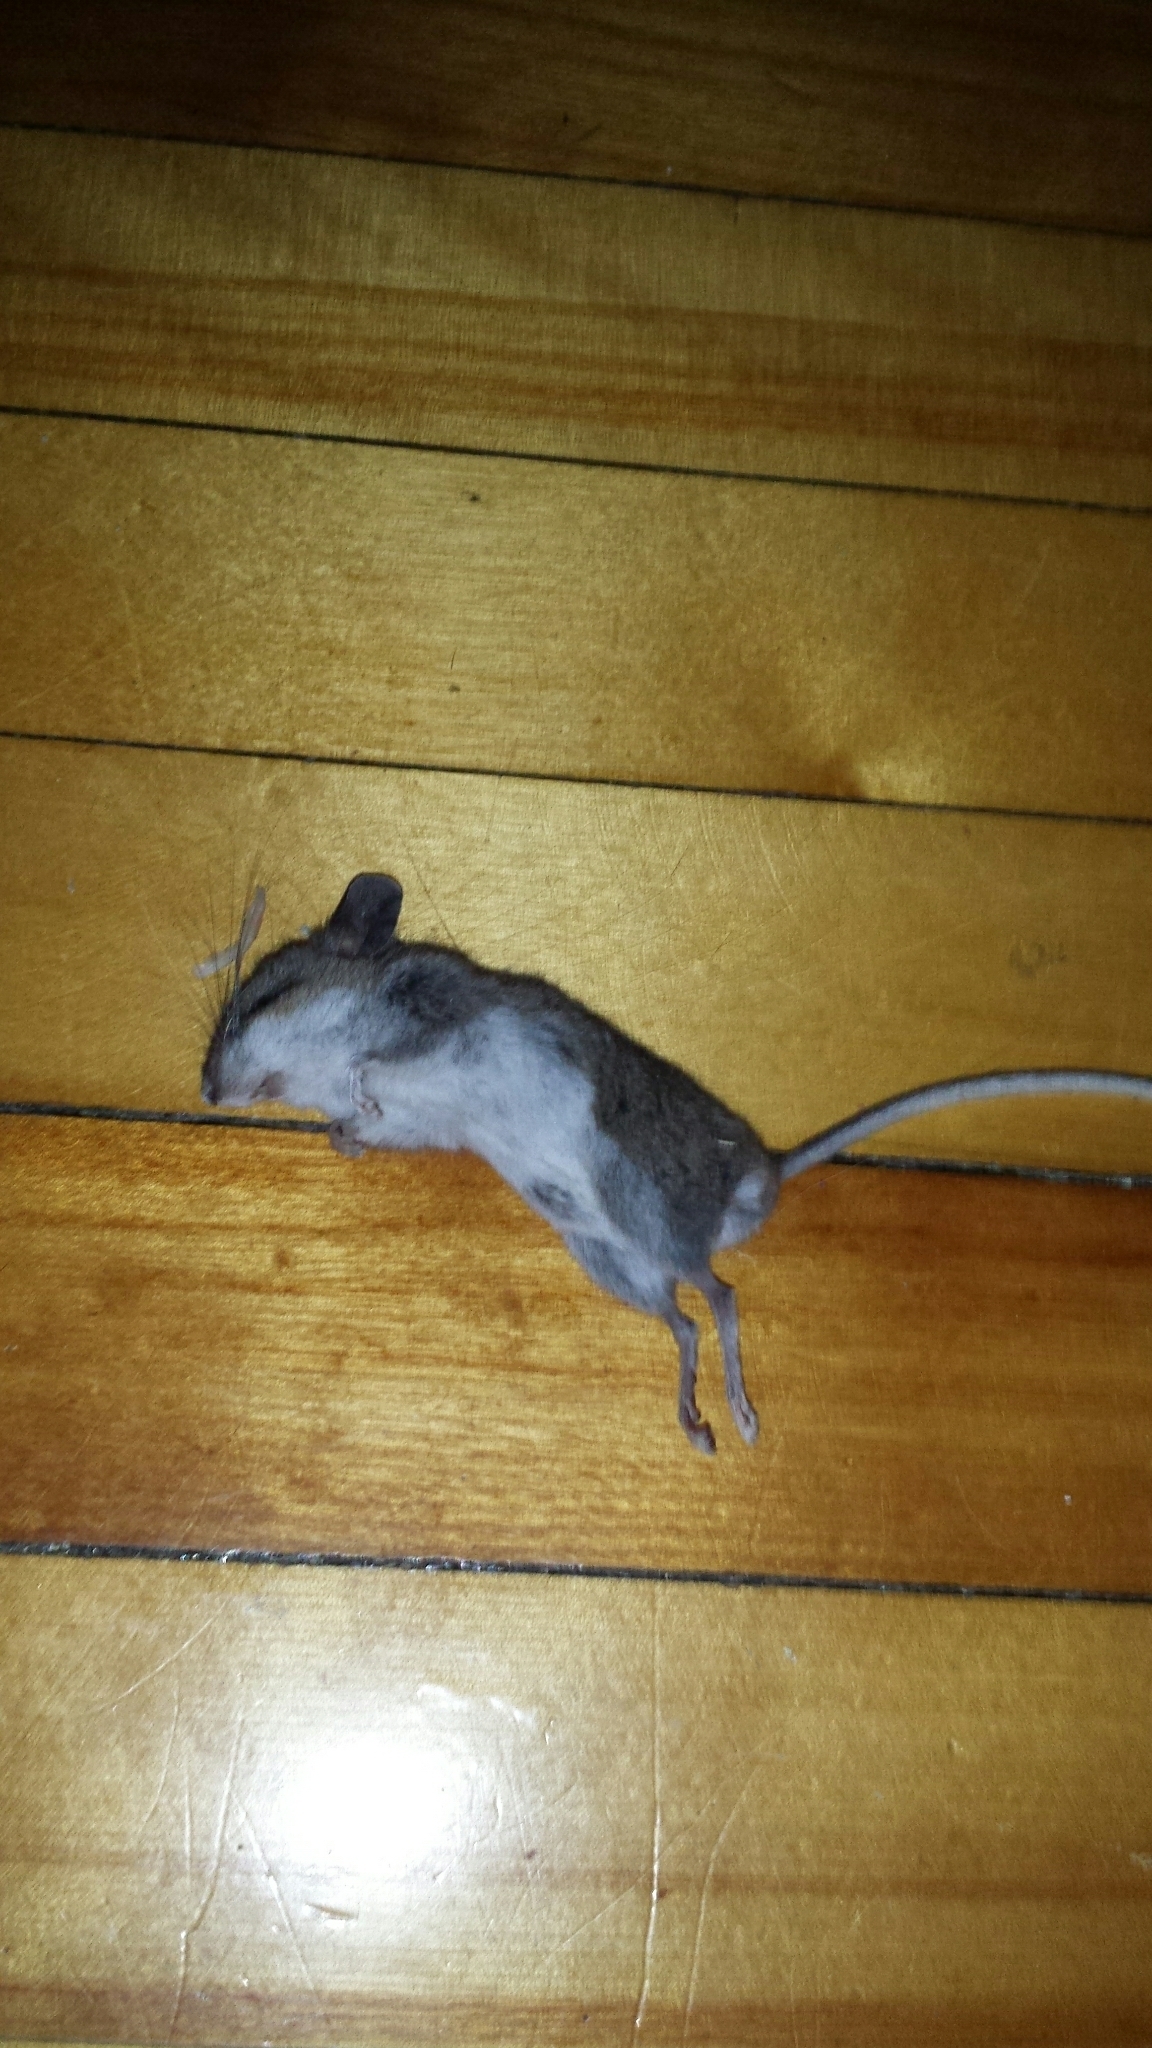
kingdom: Animalia
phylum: Chordata
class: Mammalia
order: Rodentia
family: Cricetidae
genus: Peromyscus
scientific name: Peromyscus
